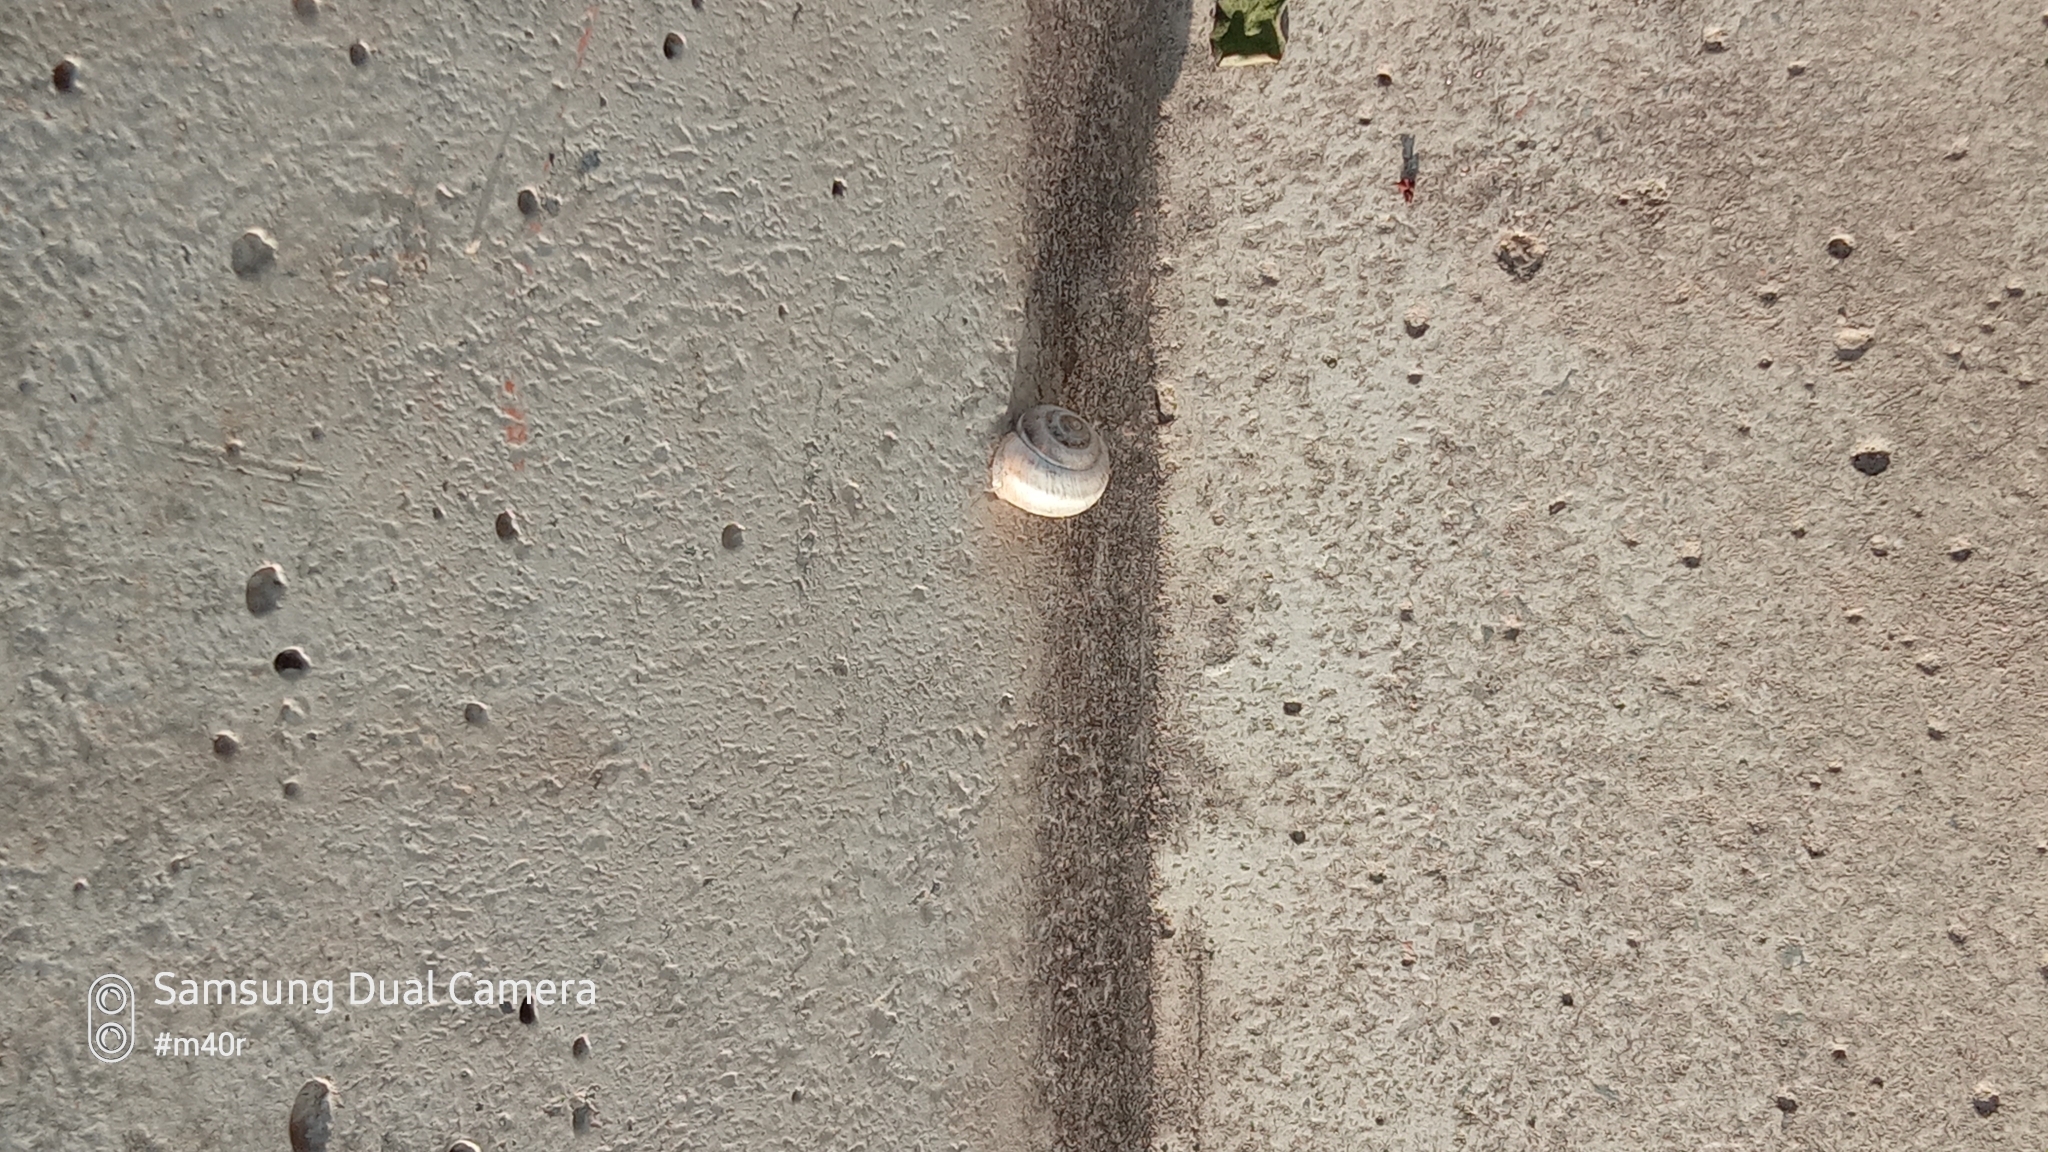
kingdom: Animalia
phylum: Mollusca
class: Gastropoda
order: Stylommatophora
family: Hygromiidae
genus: Harmozica
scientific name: Harmozica ravergiensis
